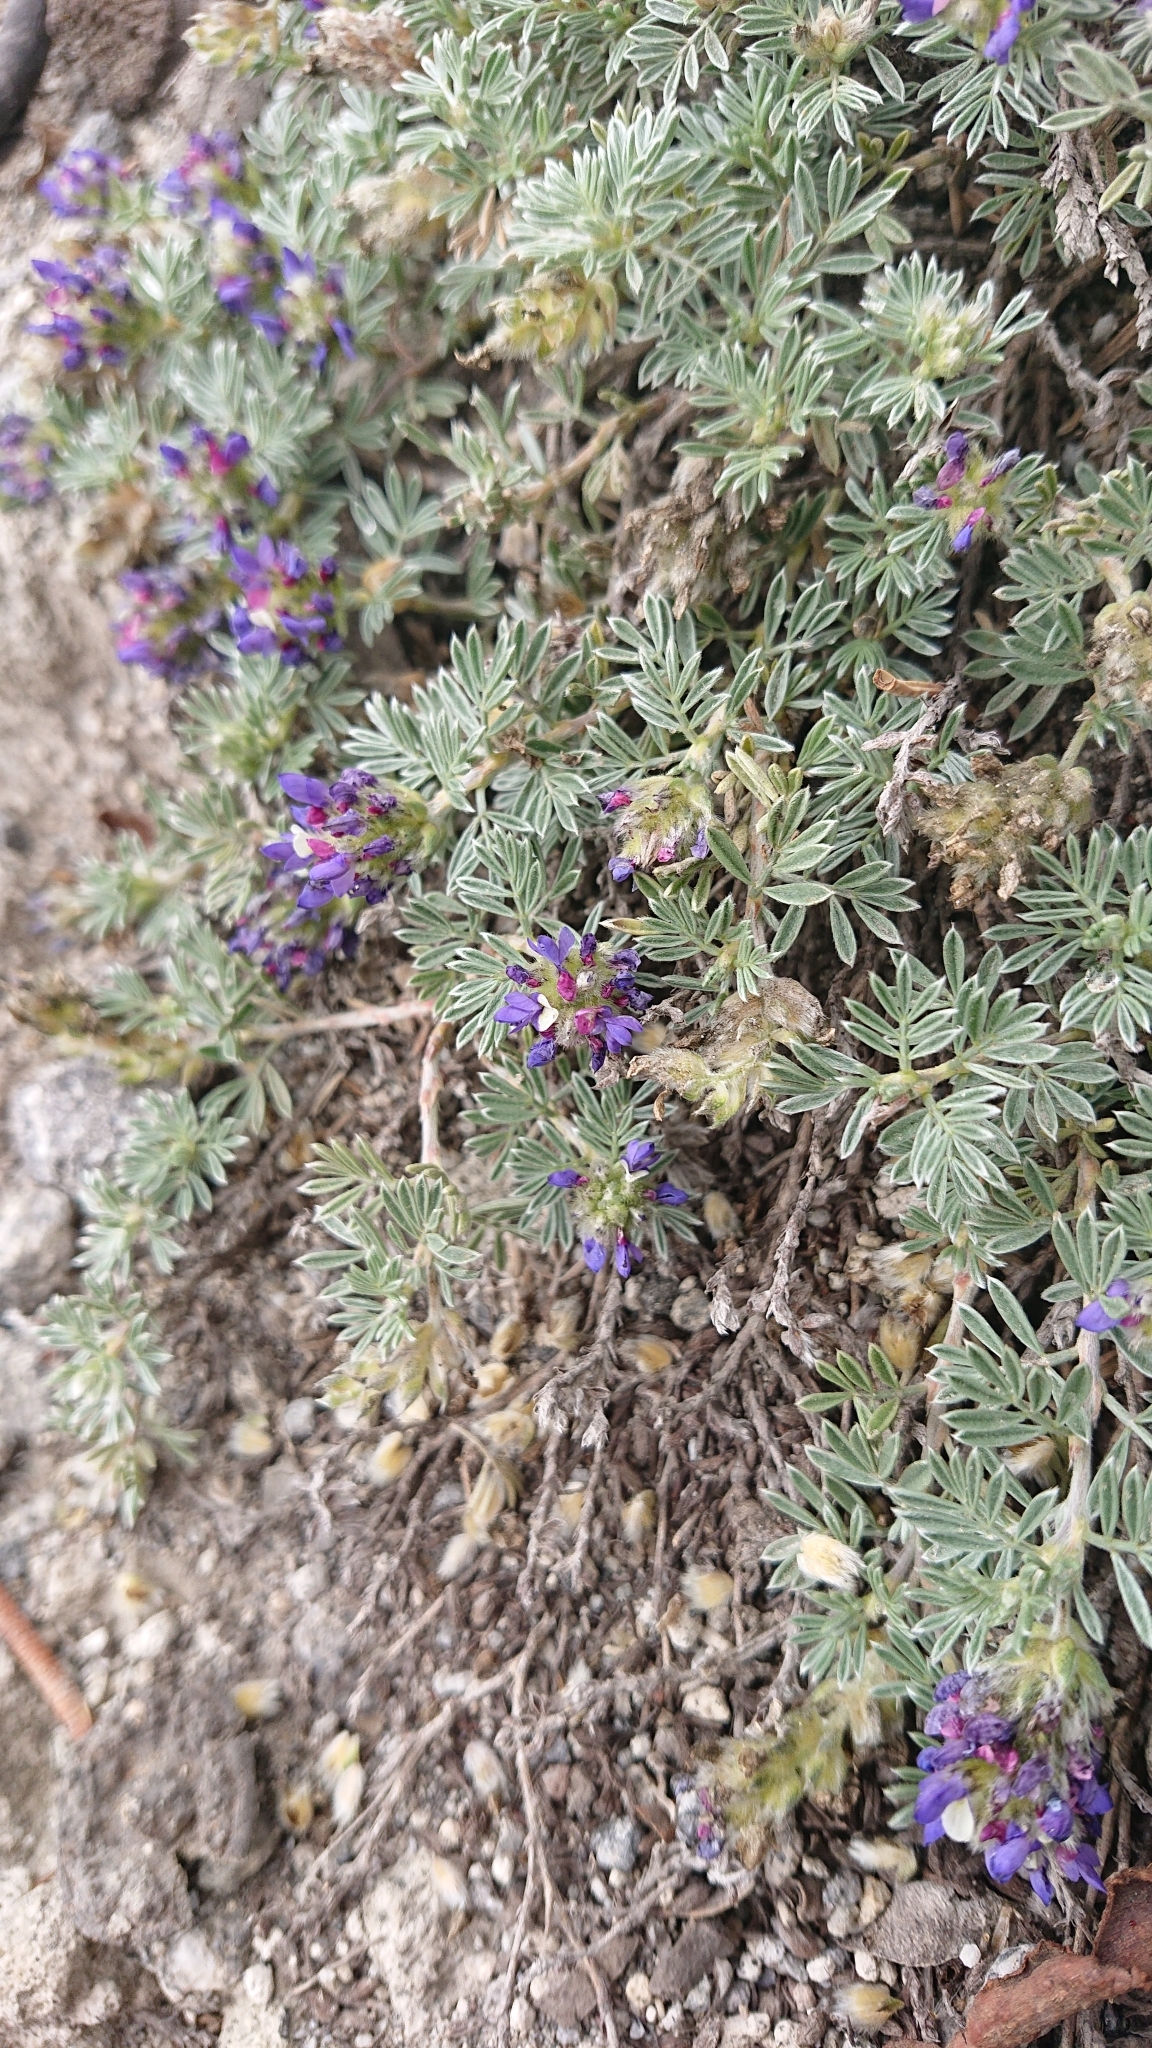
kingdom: Plantae
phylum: Tracheophyta
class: Magnoliopsida
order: Fabales
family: Fabaceae
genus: Dalea
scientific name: Dalea humifusa
